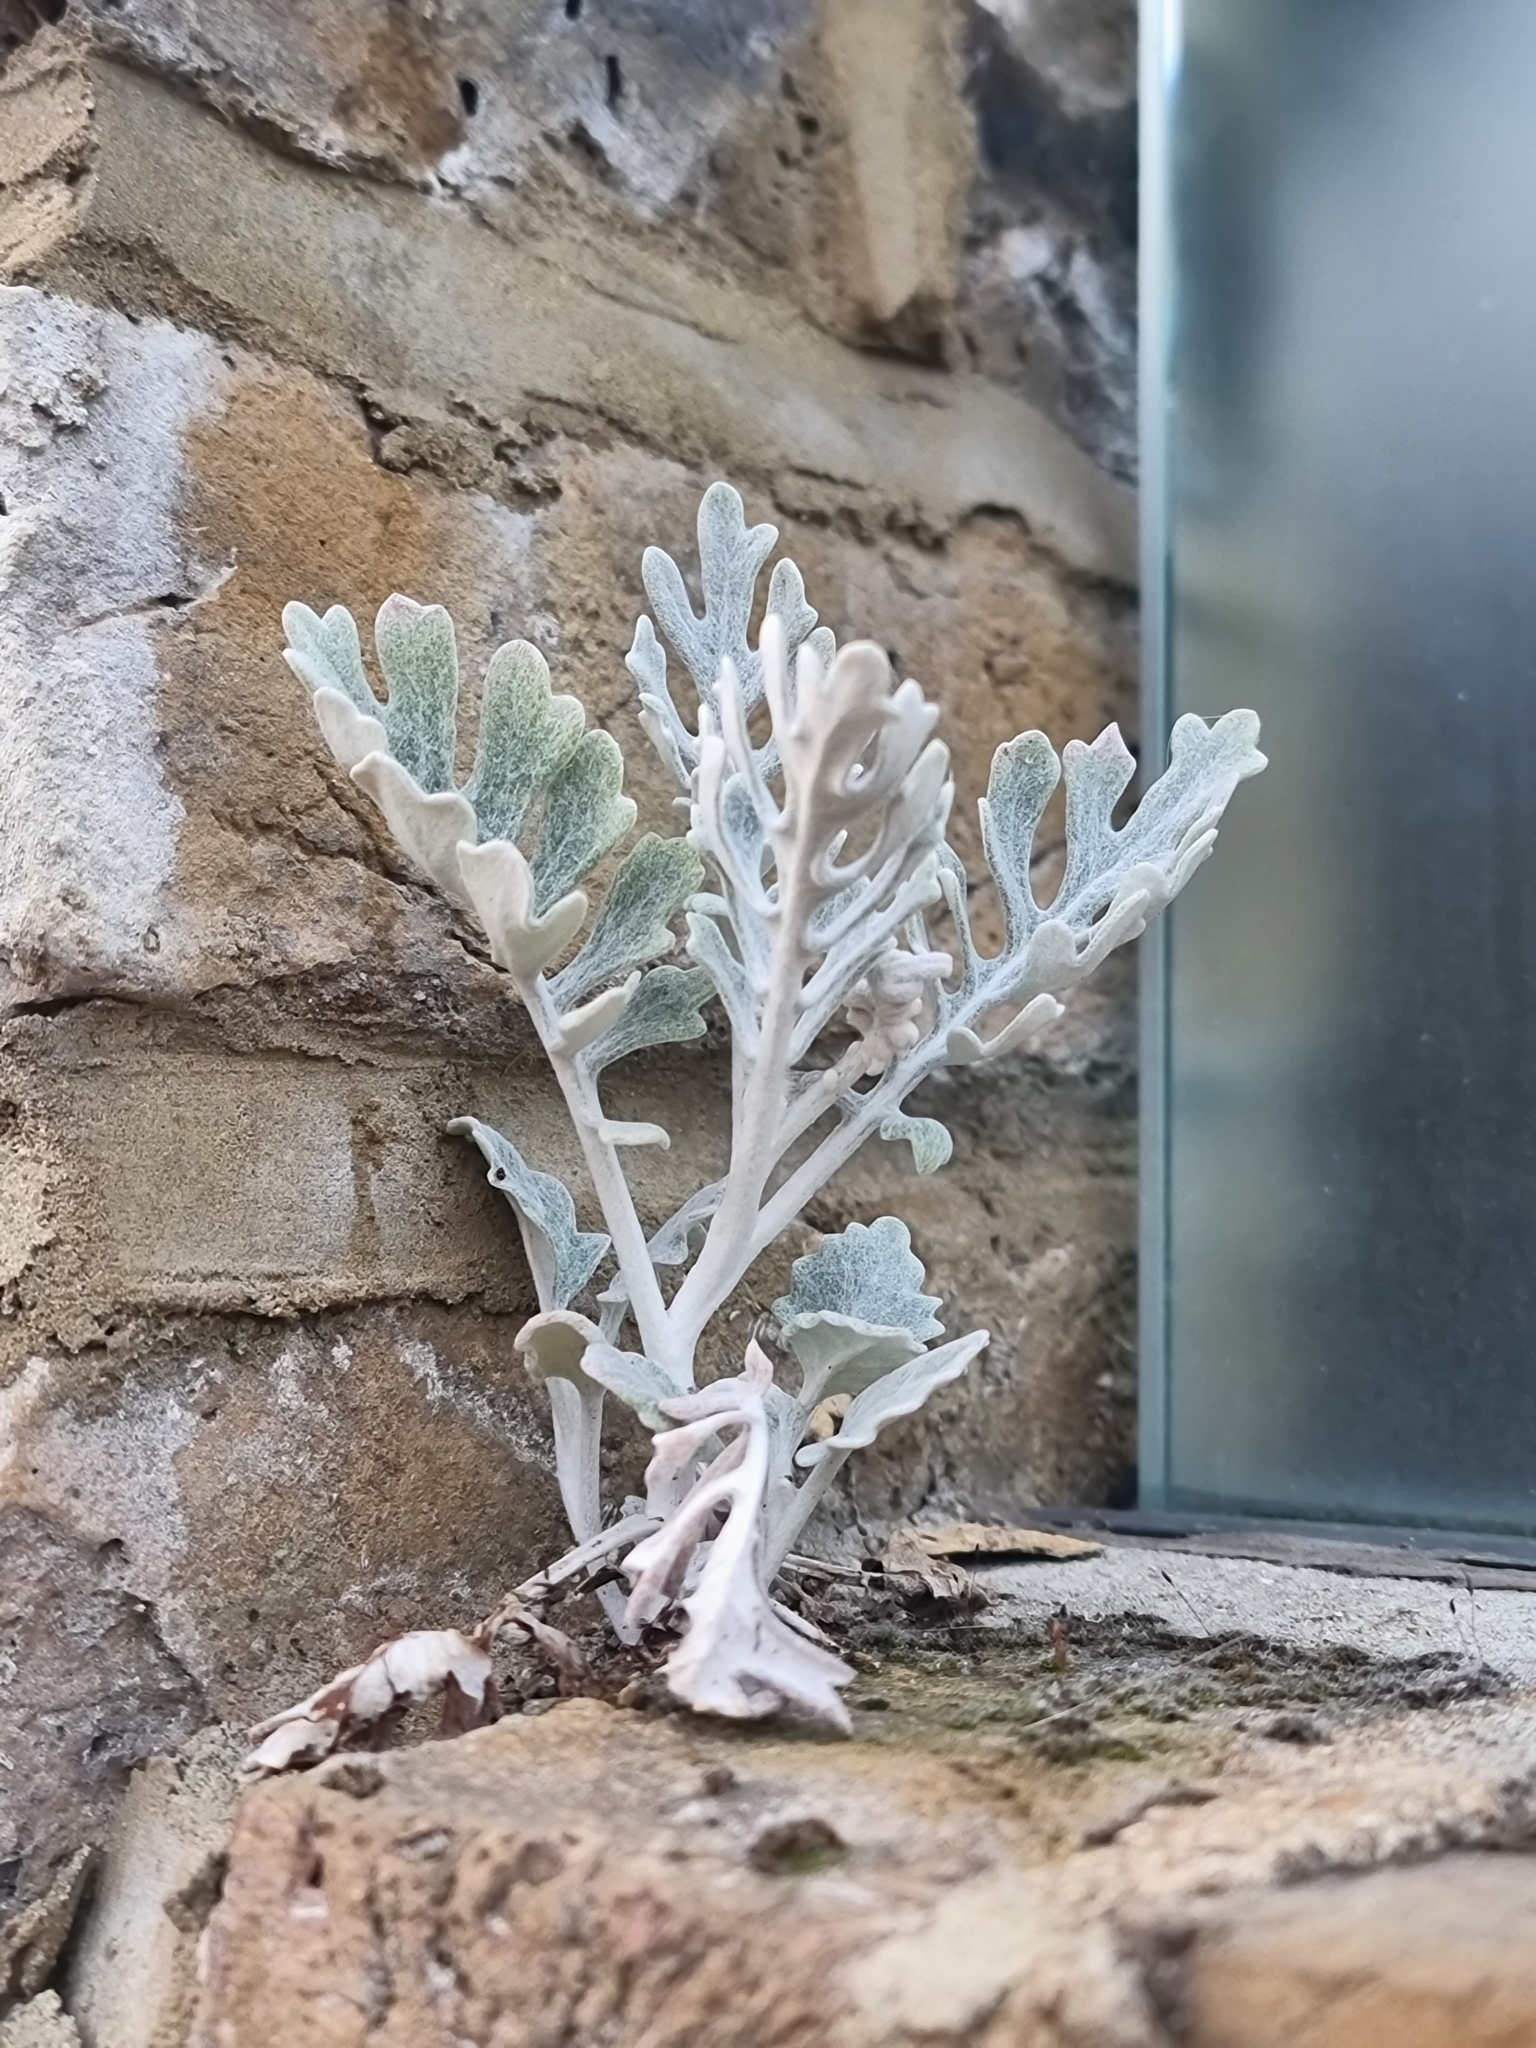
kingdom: Plantae
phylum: Tracheophyta
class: Magnoliopsida
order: Asterales
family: Asteraceae
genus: Jacobaea
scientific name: Jacobaea maritima
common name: Silver ragwort
